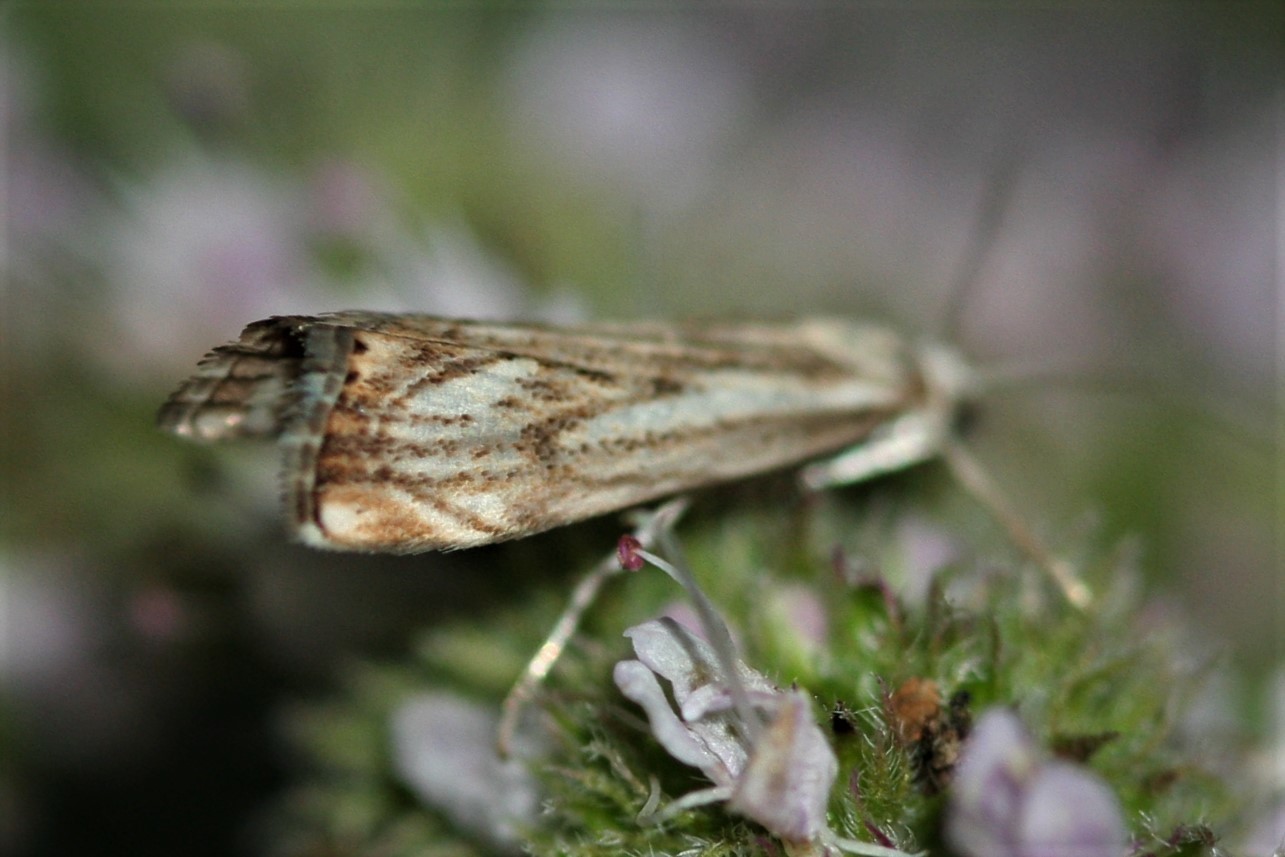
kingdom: Animalia
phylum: Arthropoda
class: Insecta
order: Lepidoptera
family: Crambidae
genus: Catoptria
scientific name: Catoptria falsella
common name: Chequered grass-veneer
